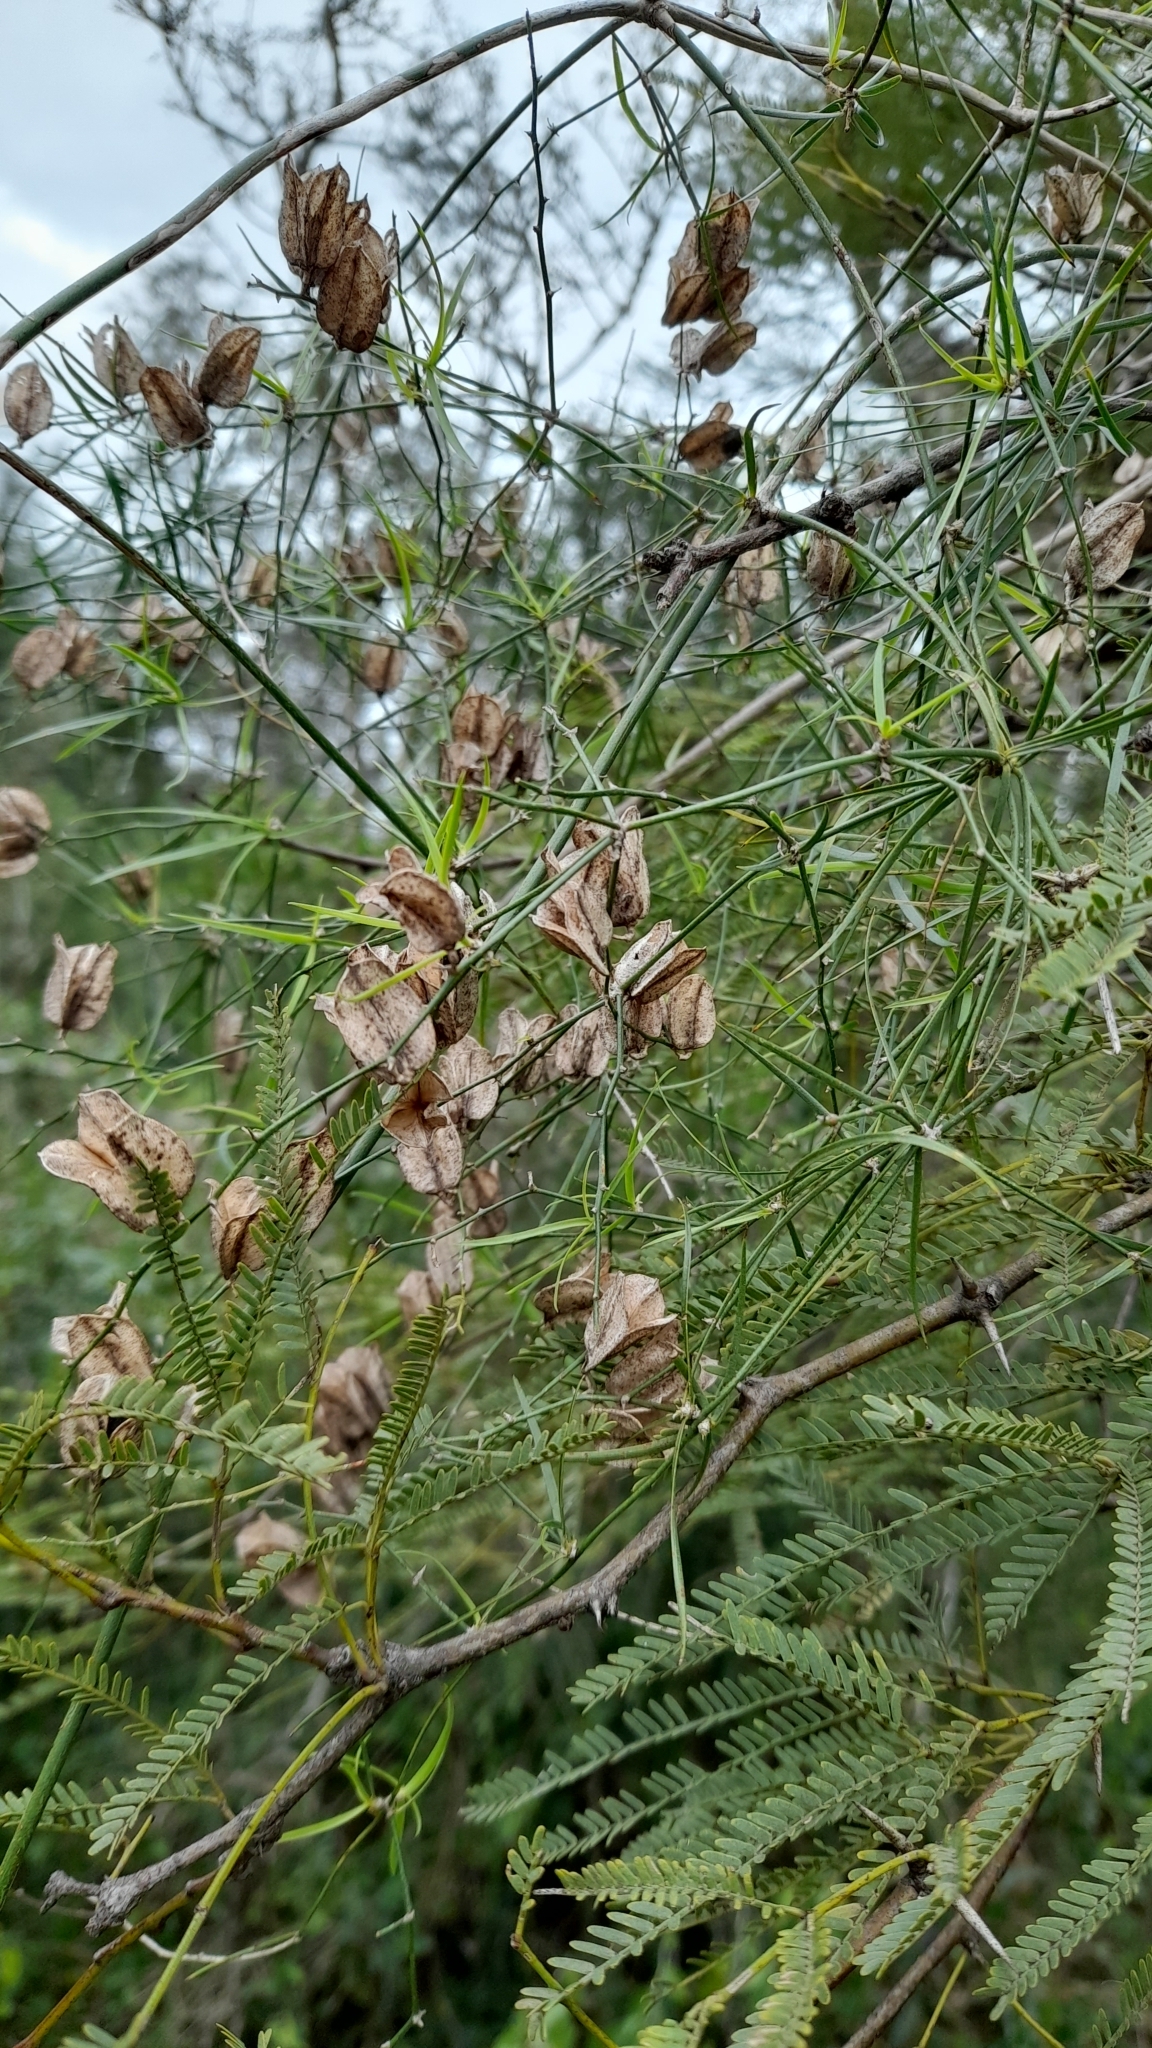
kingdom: Plantae
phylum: Tracheophyta
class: Liliopsida
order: Asparagales
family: Asparagaceae
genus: Herreria
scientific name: Herreria bonplandii
